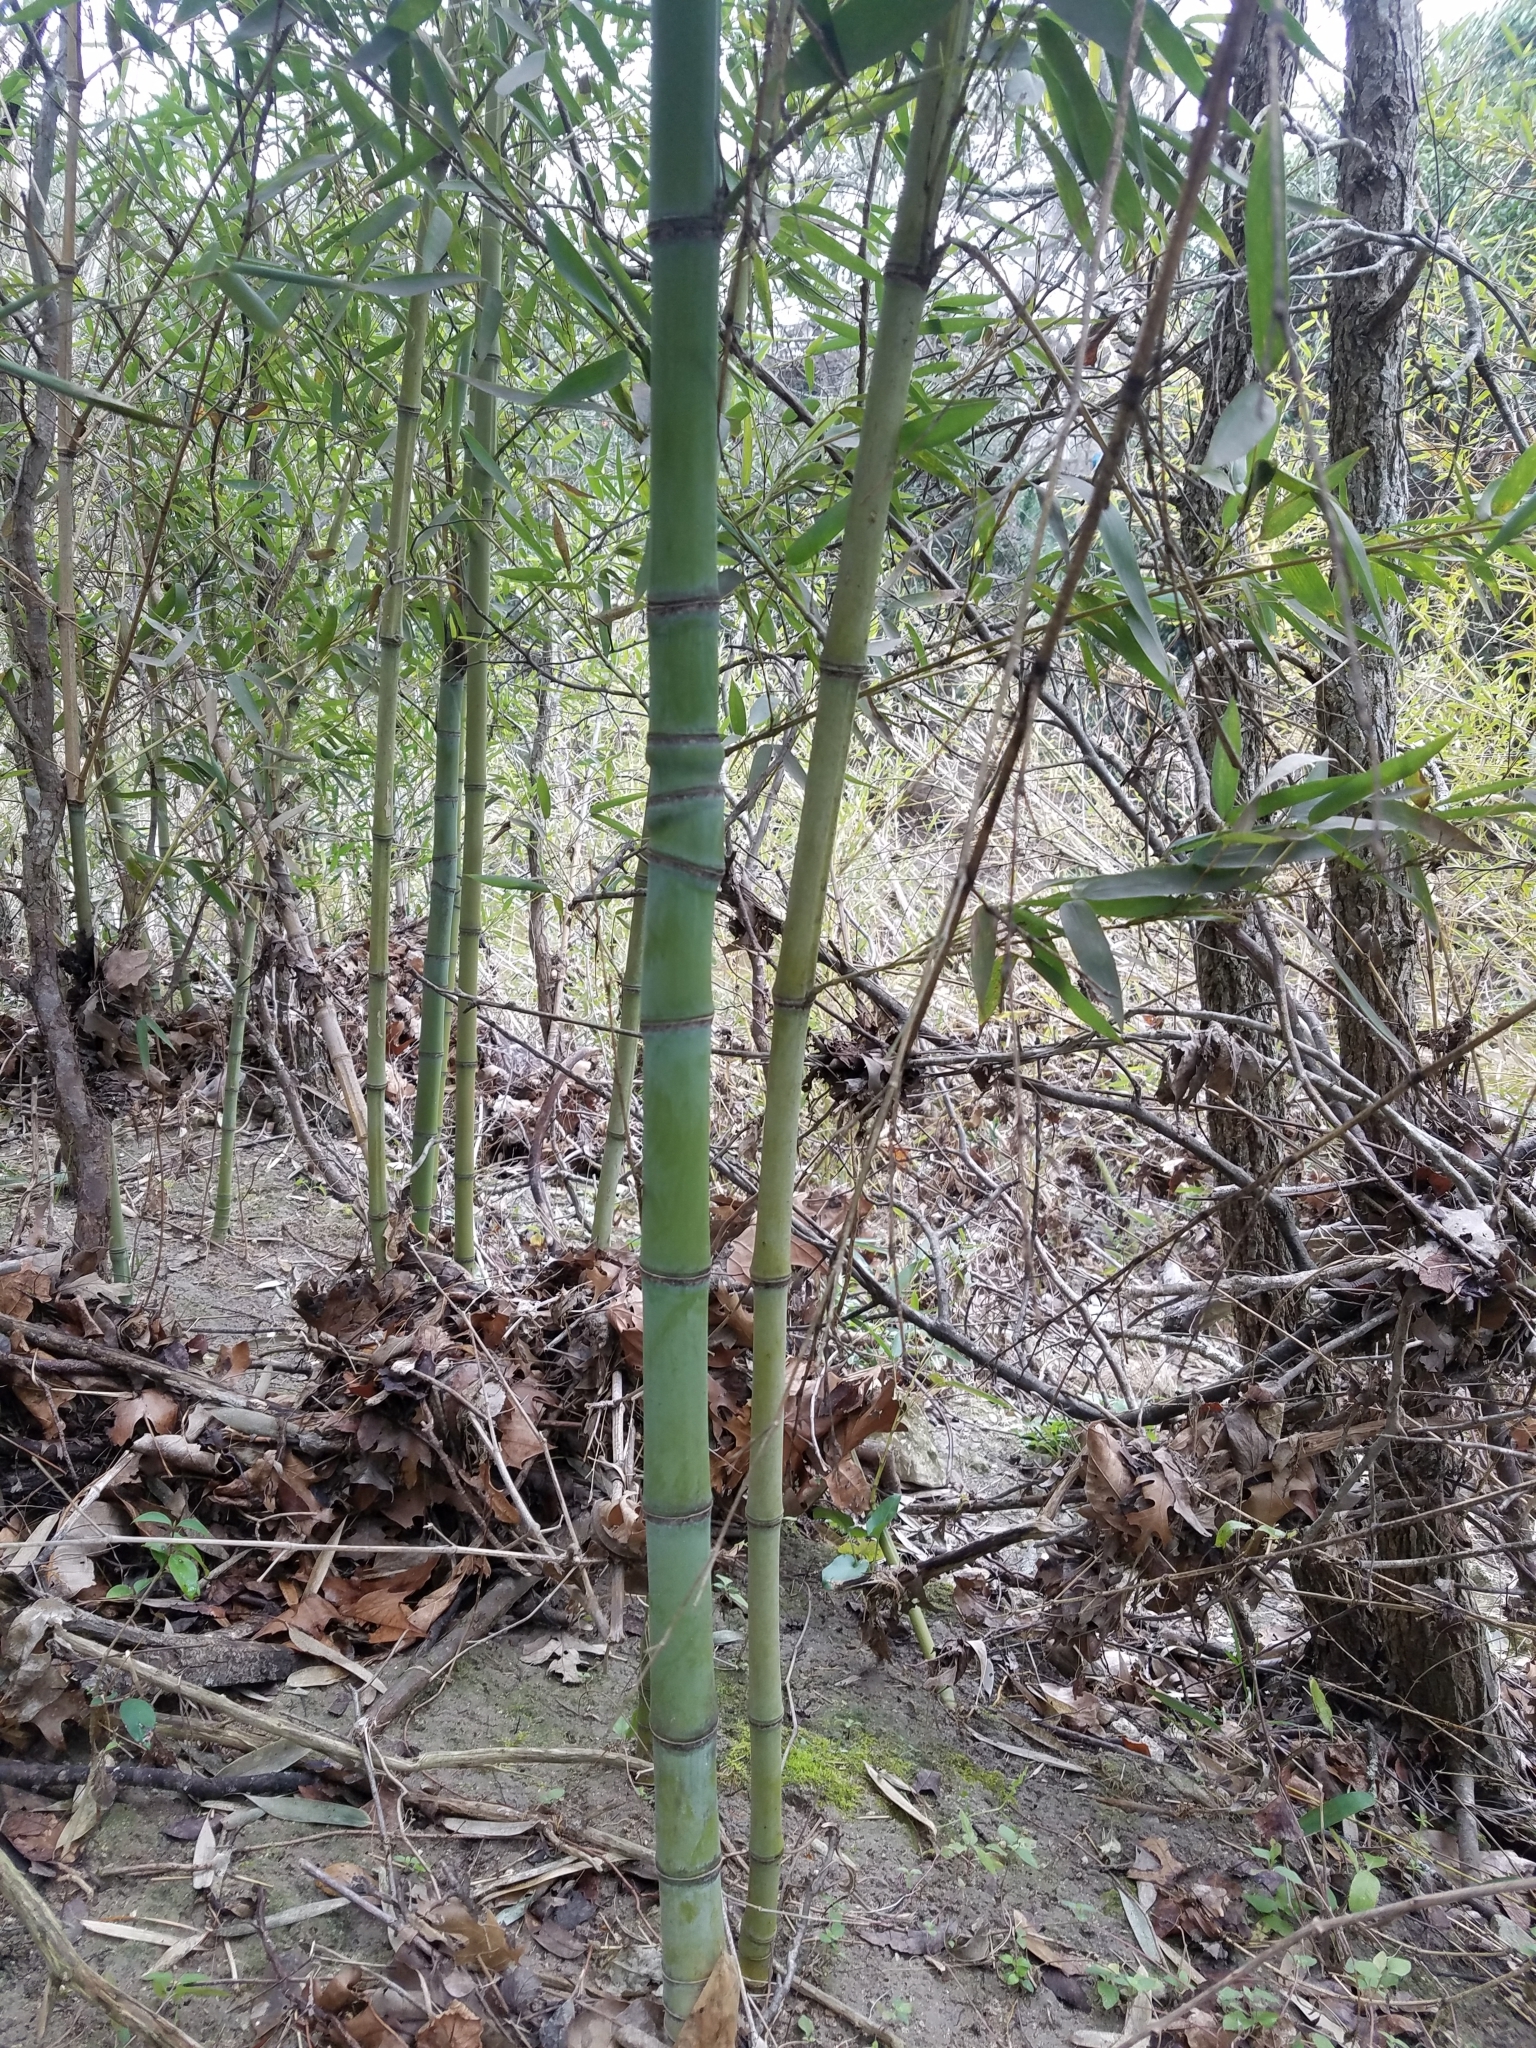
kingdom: Plantae
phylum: Tracheophyta
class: Liliopsida
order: Poales
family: Poaceae
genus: Phyllostachys
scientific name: Phyllostachys aurea
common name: Golden bamboo
